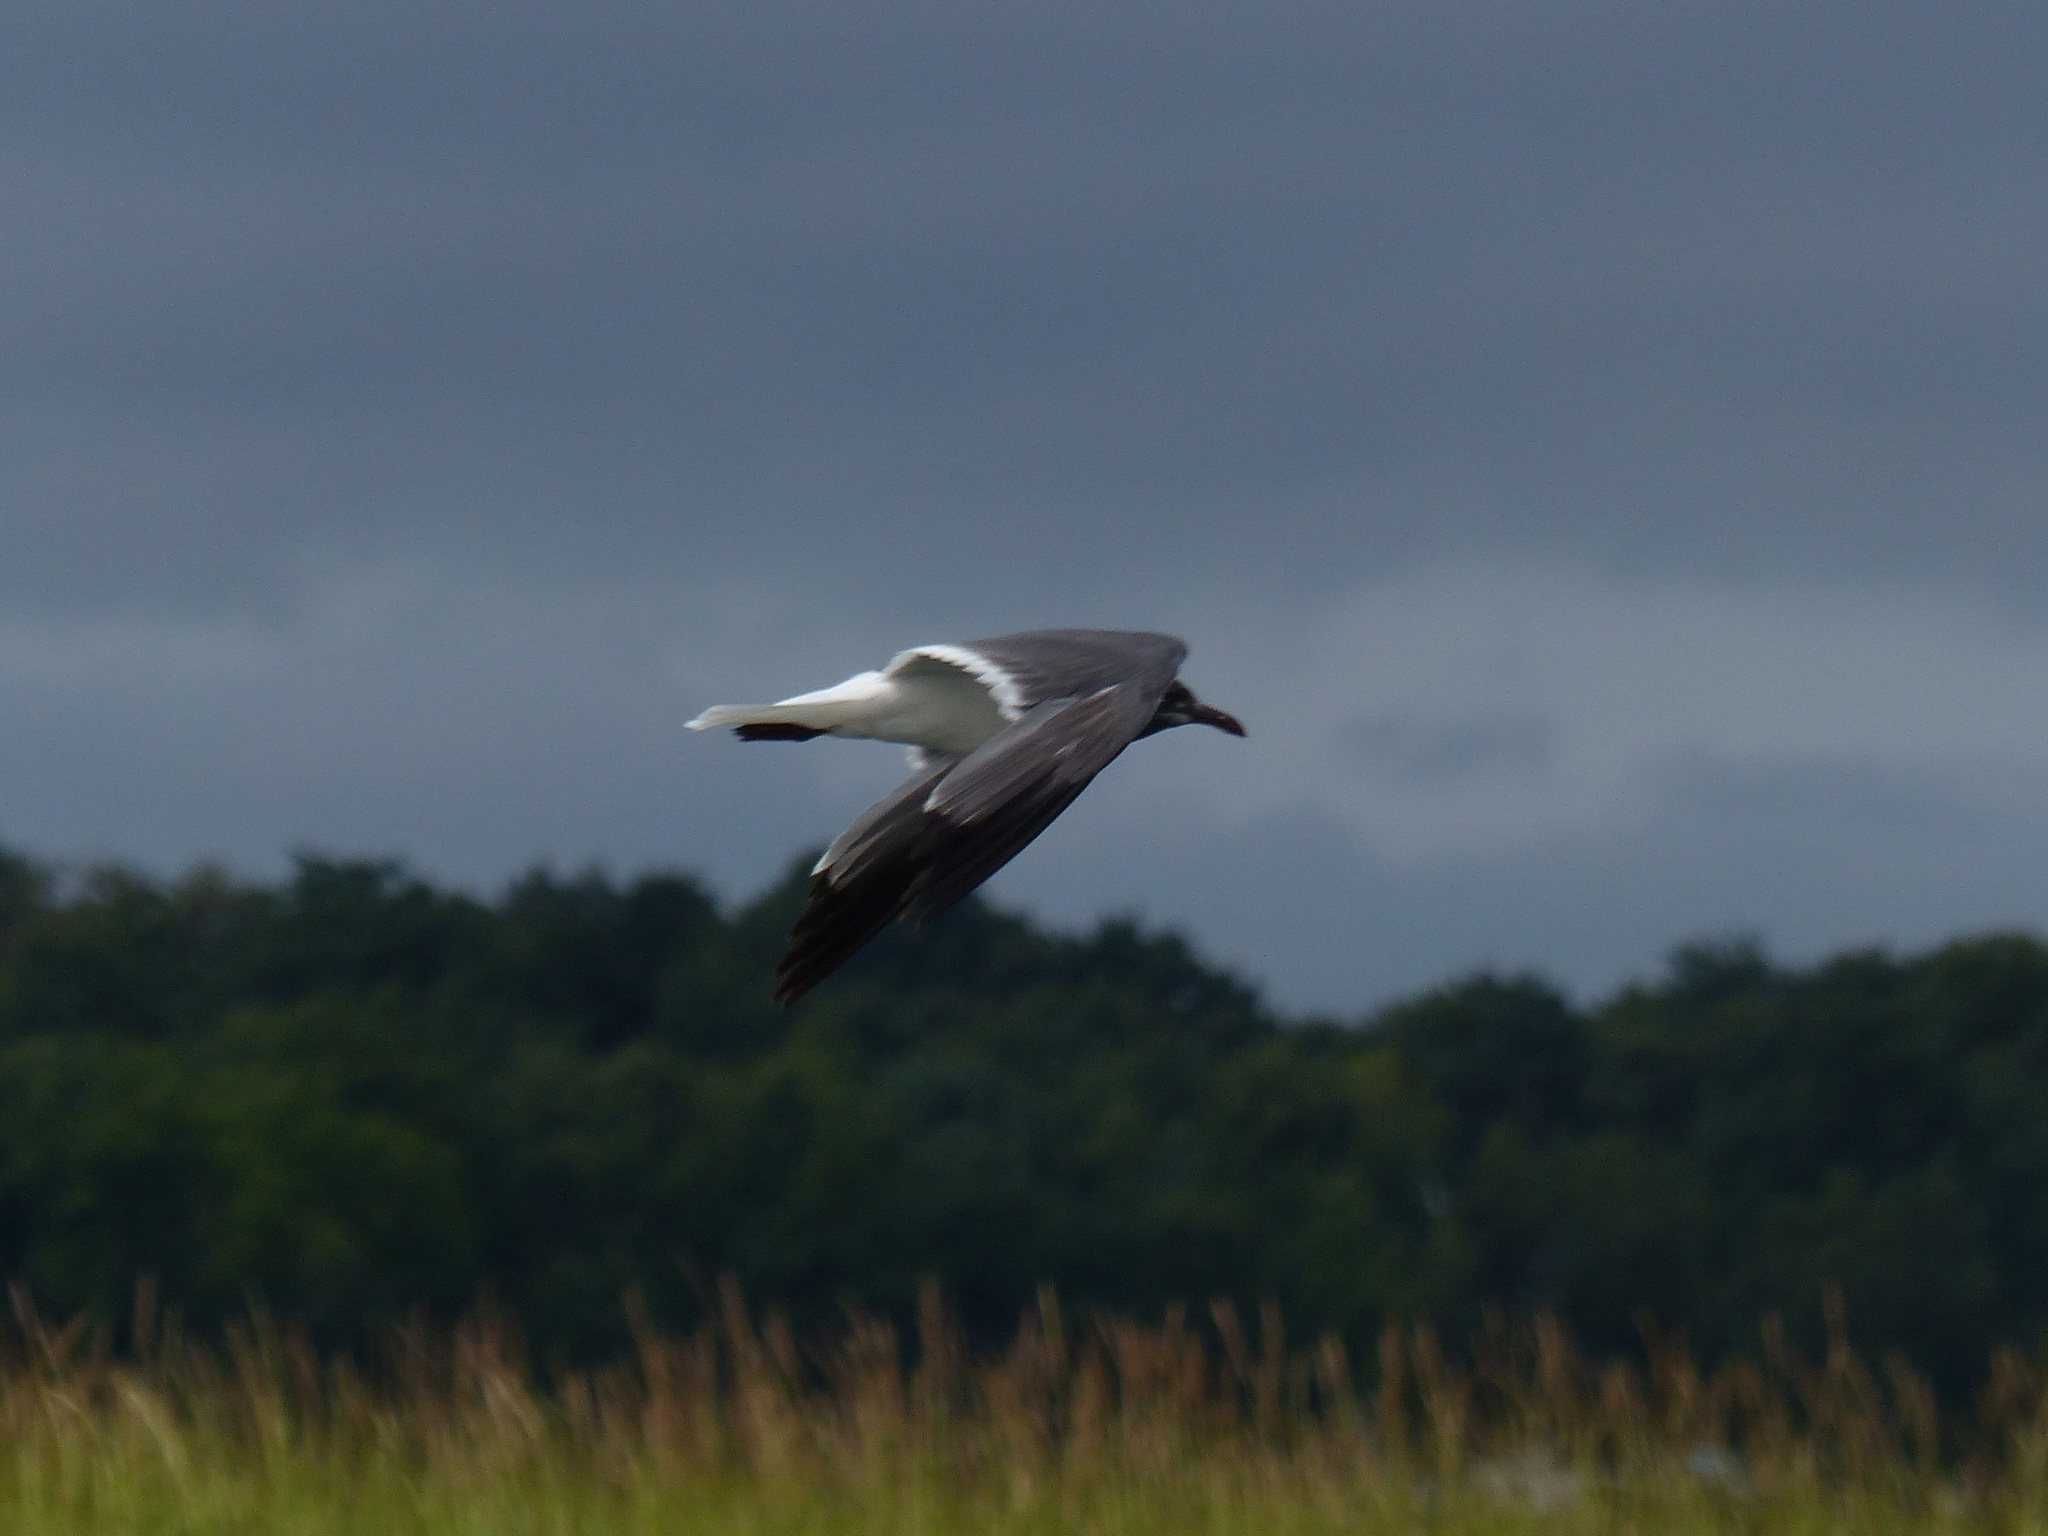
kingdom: Animalia
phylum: Chordata
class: Aves
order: Charadriiformes
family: Laridae
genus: Leucophaeus
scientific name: Leucophaeus atricilla
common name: Laughing gull
